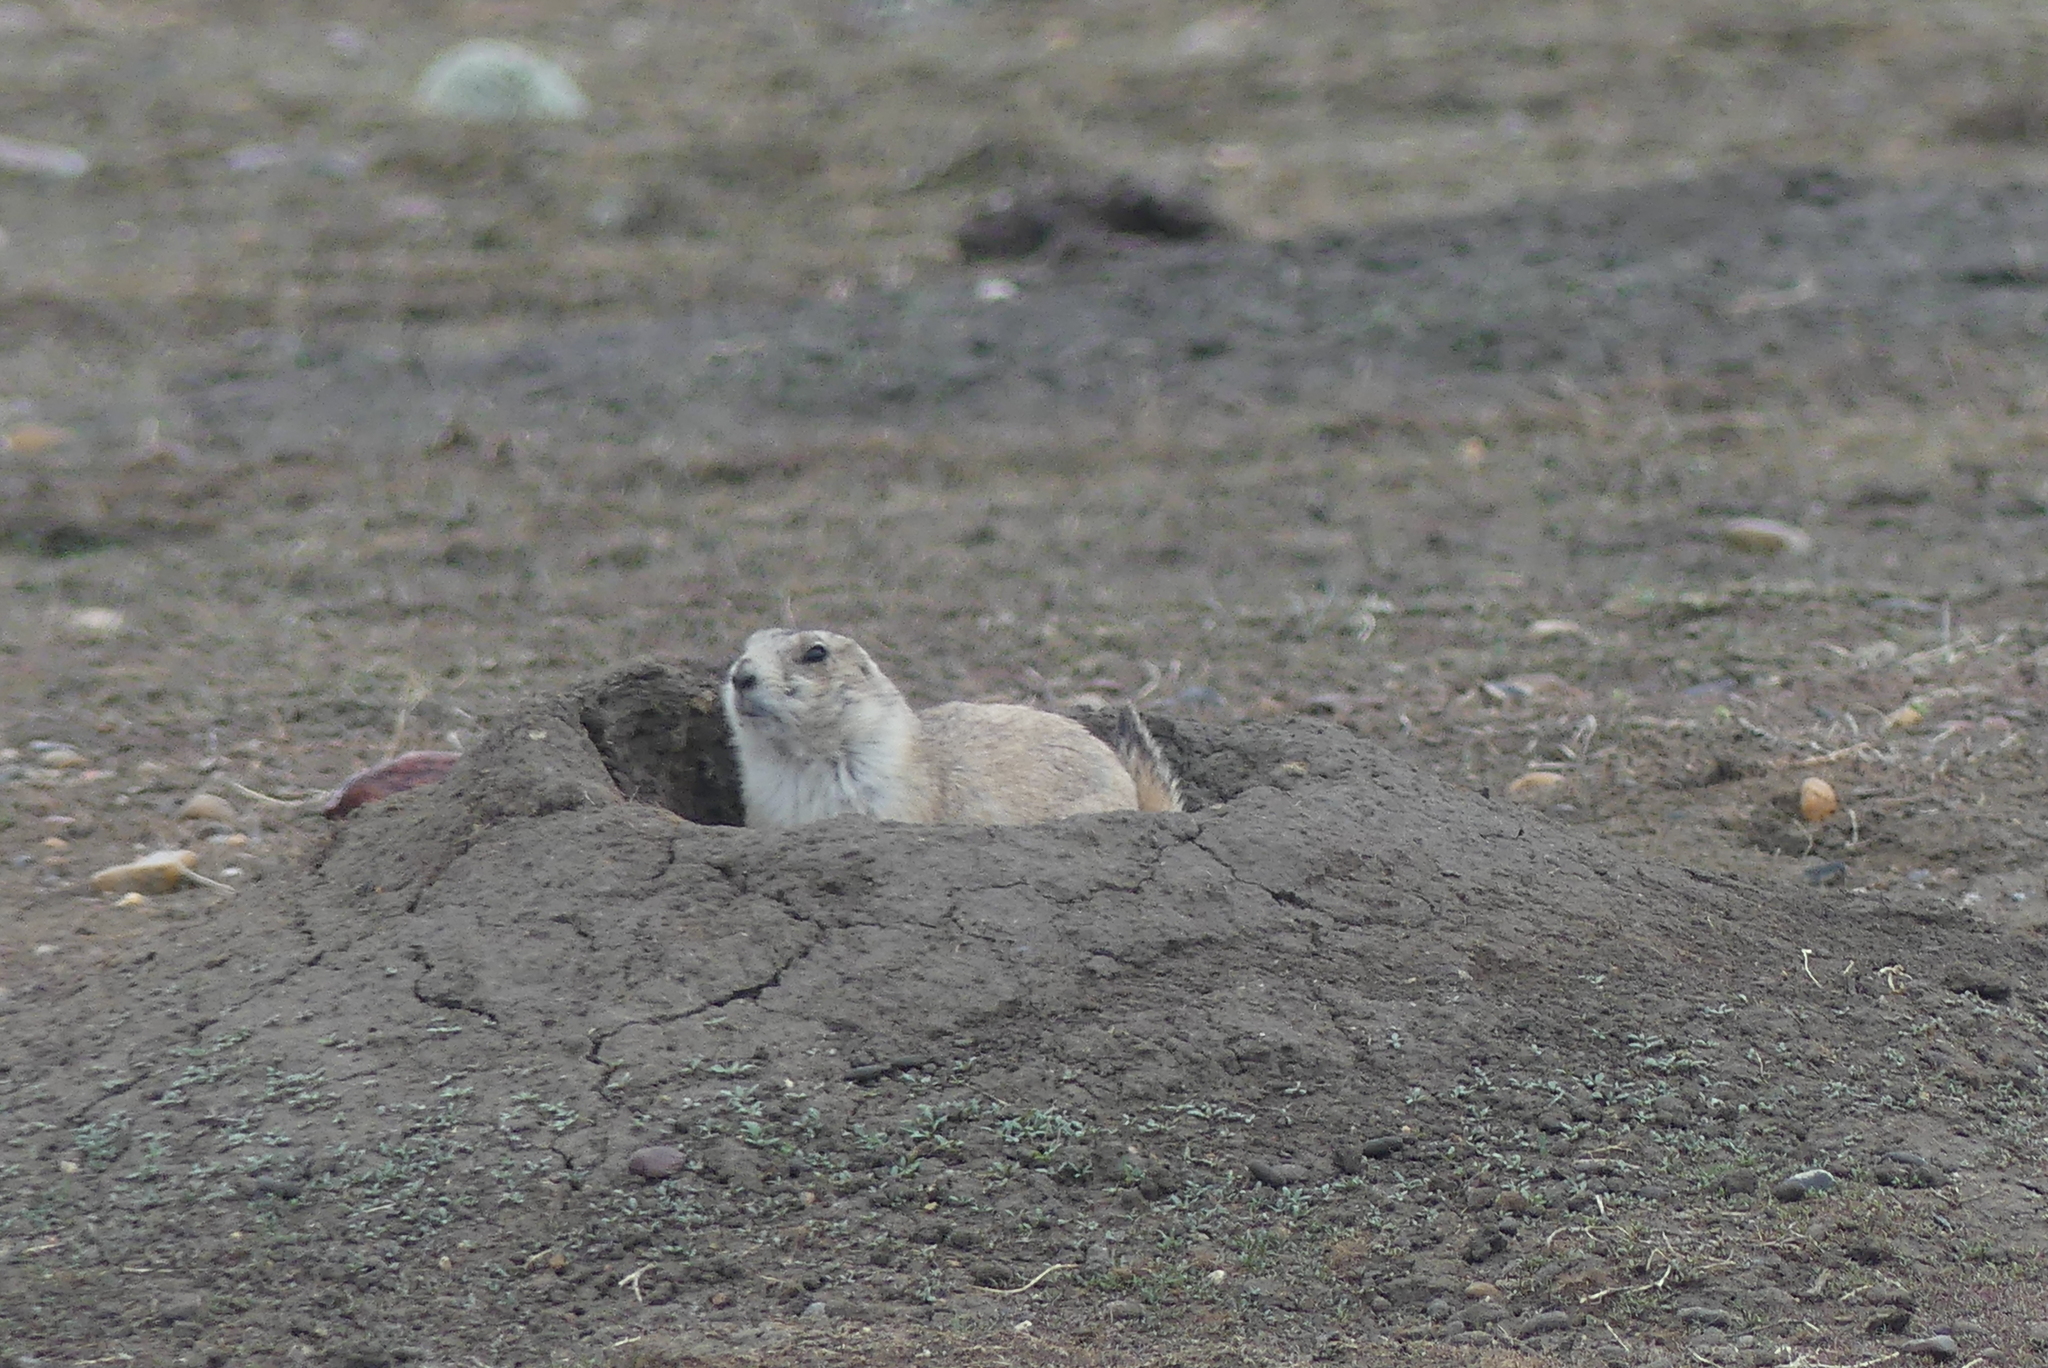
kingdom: Animalia
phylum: Chordata
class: Mammalia
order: Rodentia
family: Sciuridae
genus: Cynomys
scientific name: Cynomys ludovicianus
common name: Black-tailed prairie dog
